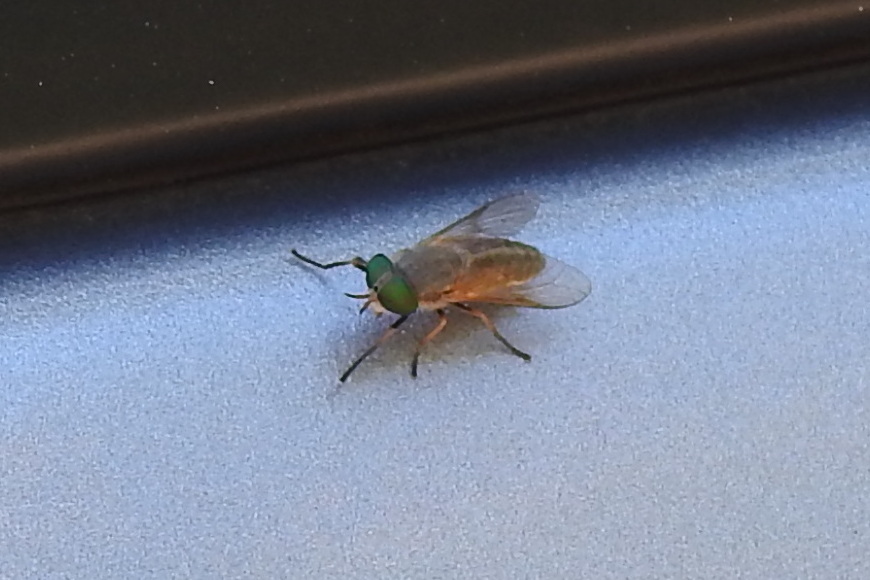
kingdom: Animalia
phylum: Arthropoda
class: Insecta
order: Diptera
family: Tabanidae
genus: Tabanus
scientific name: Tabanus
